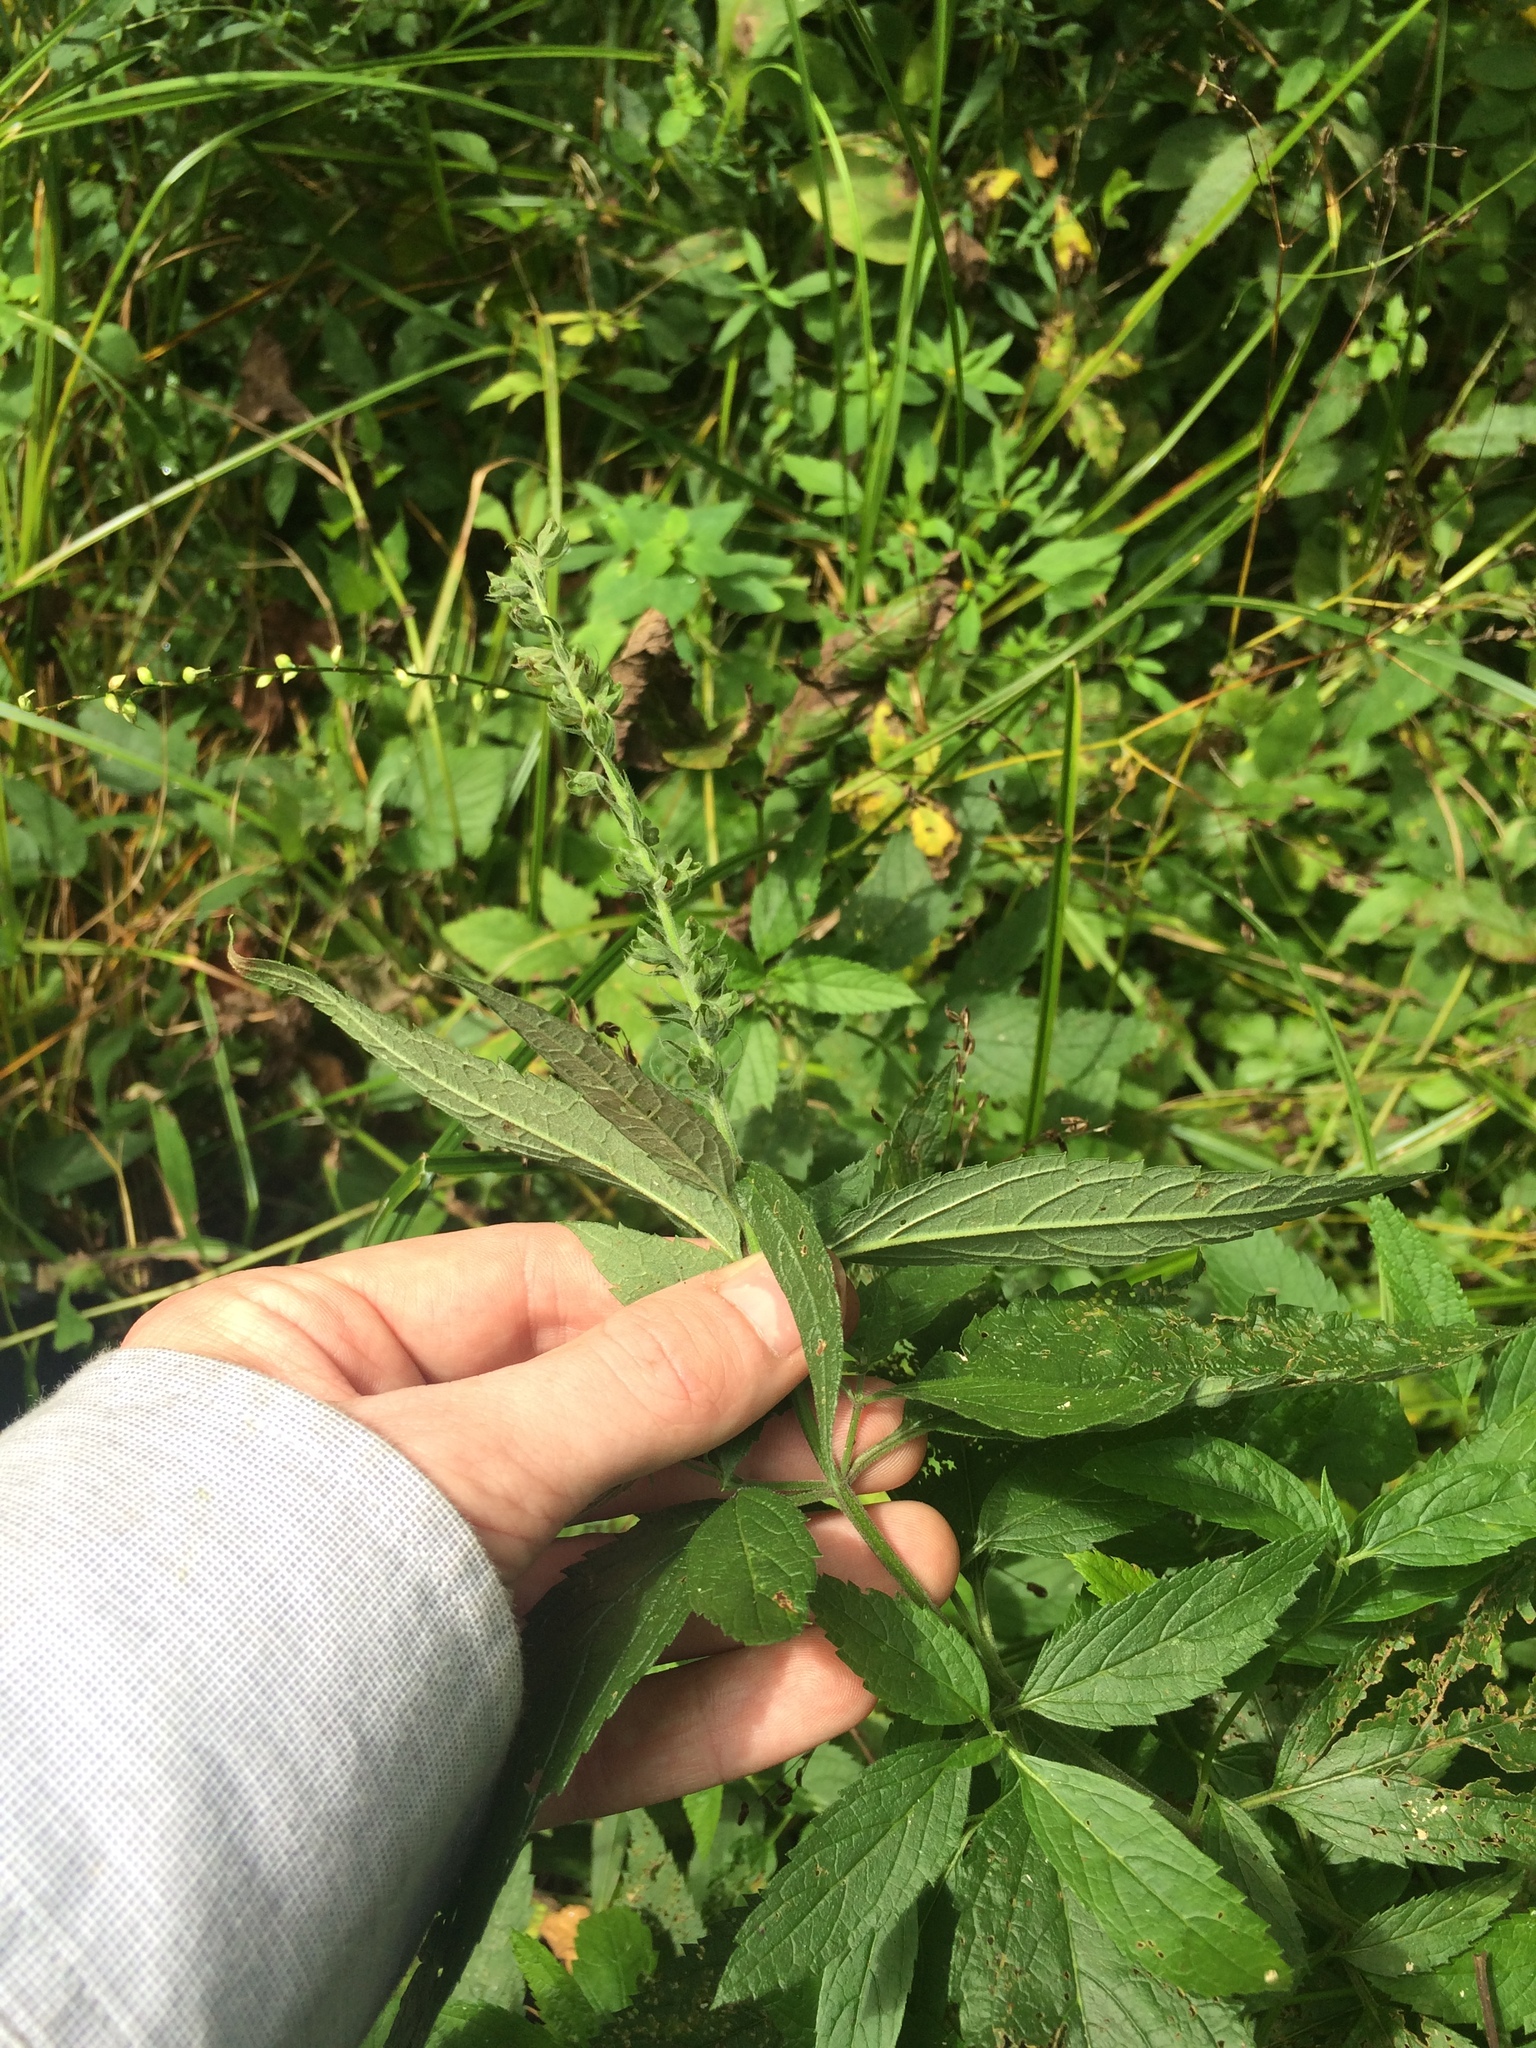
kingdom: Plantae
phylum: Tracheophyta
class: Magnoliopsida
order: Lamiales
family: Lamiaceae
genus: Teucrium
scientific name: Teucrium canadense
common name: American germander
